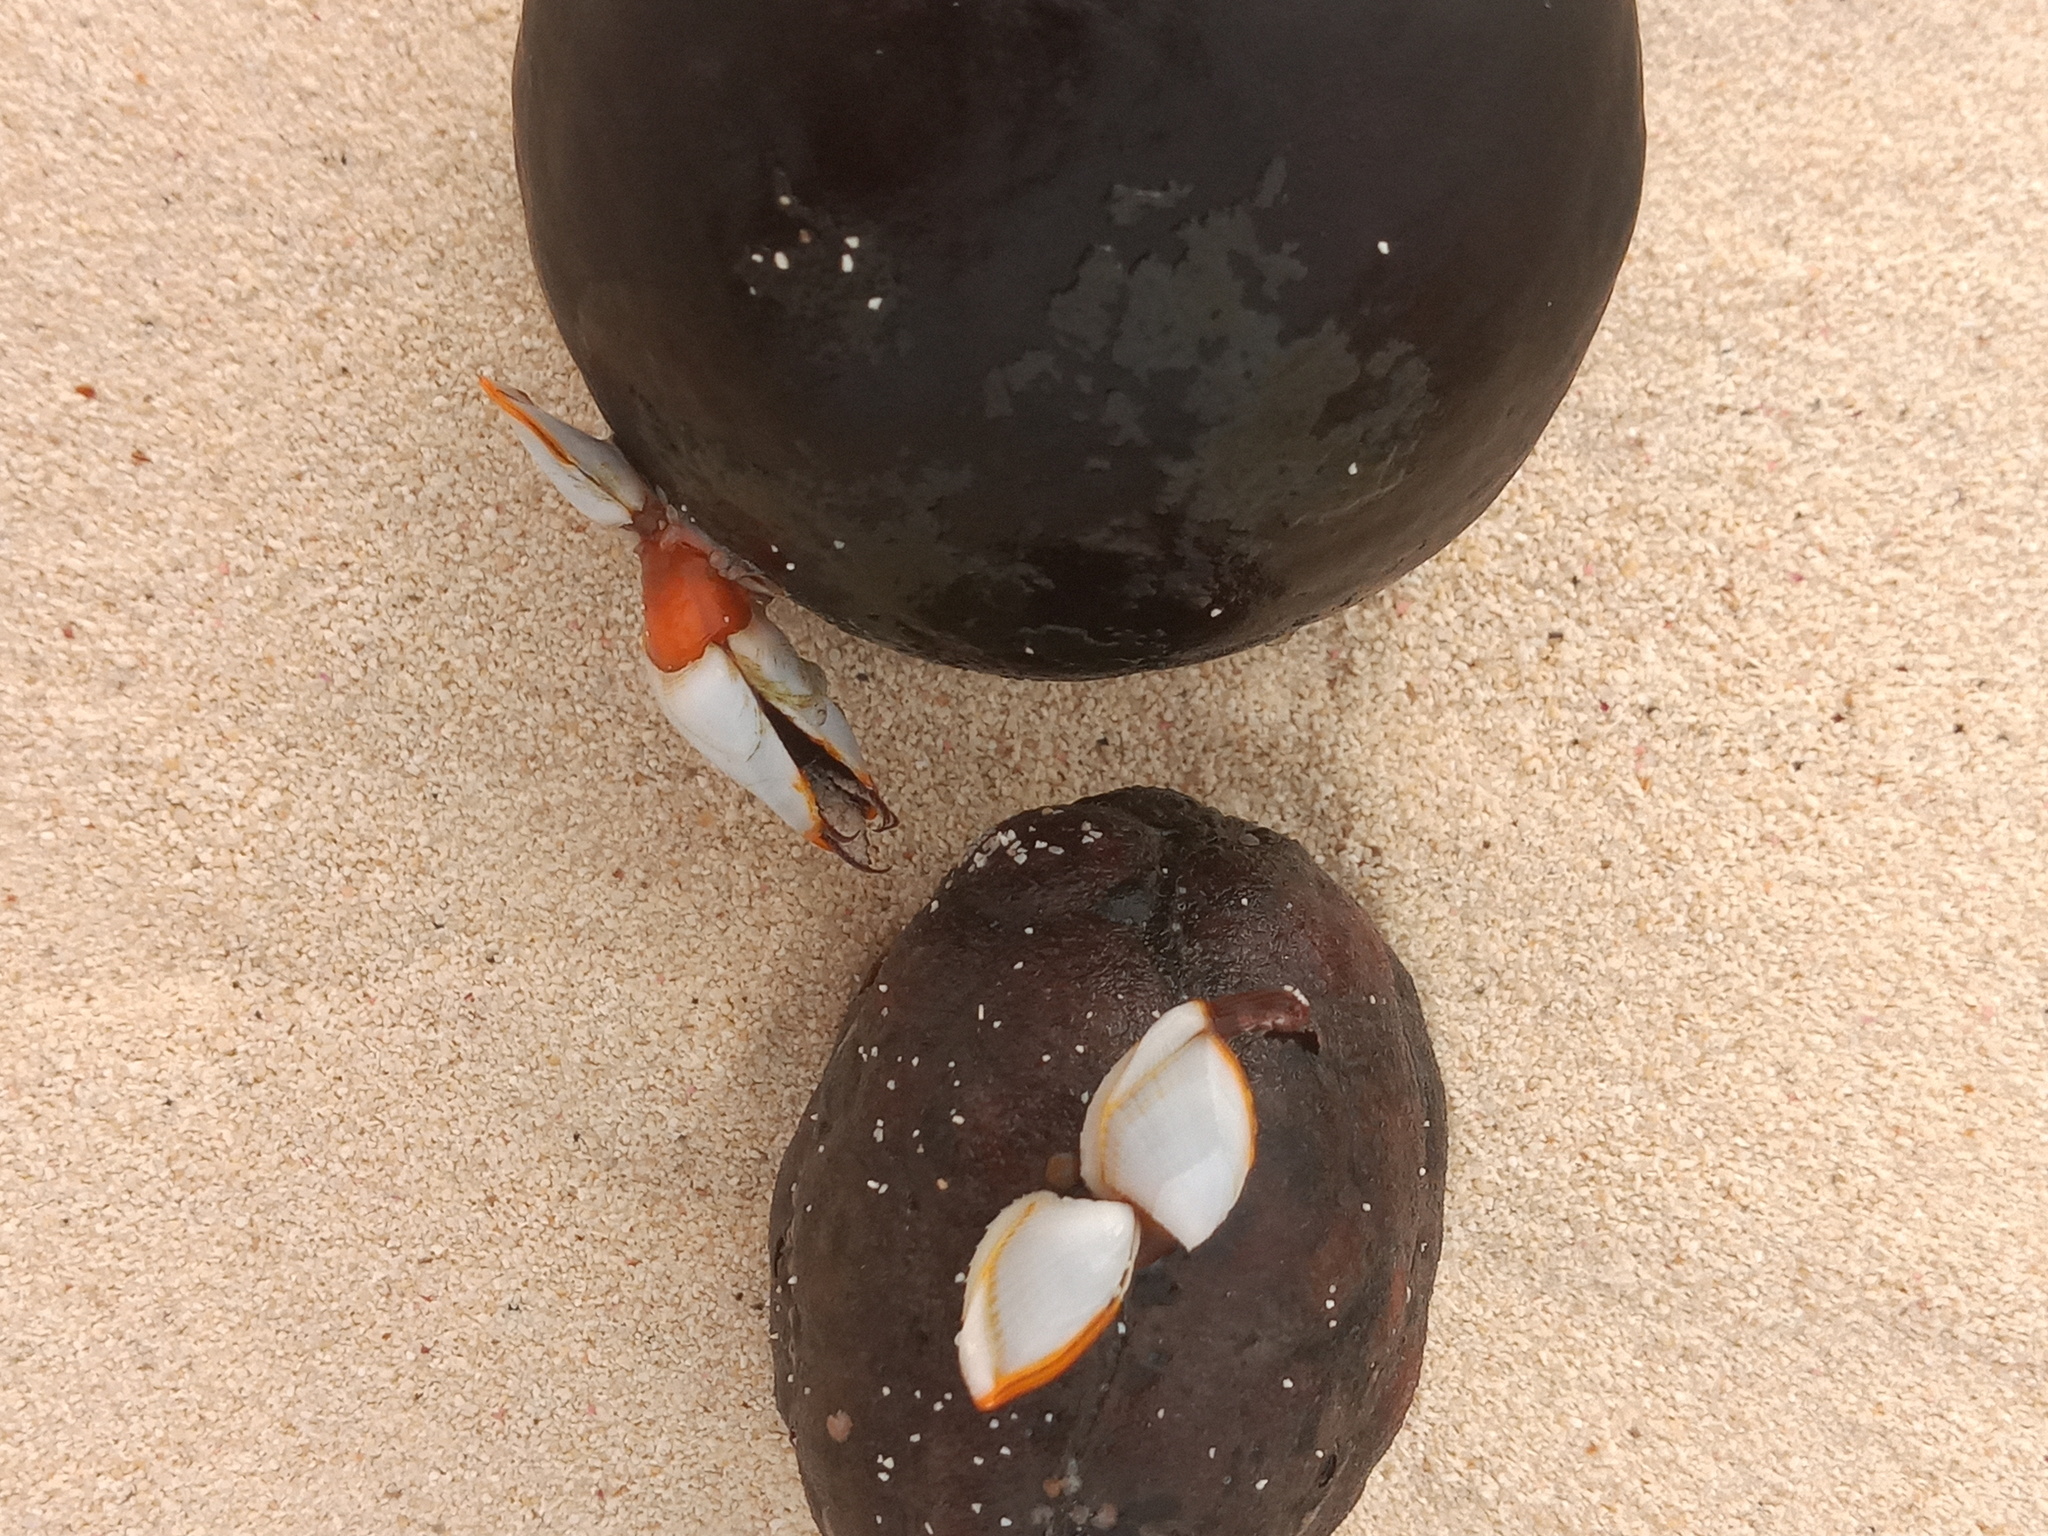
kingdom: Animalia
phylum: Arthropoda
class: Maxillopoda
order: Pedunculata
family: Lepadidae
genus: Lepas
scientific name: Lepas anserifera
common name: Goose barnacle
